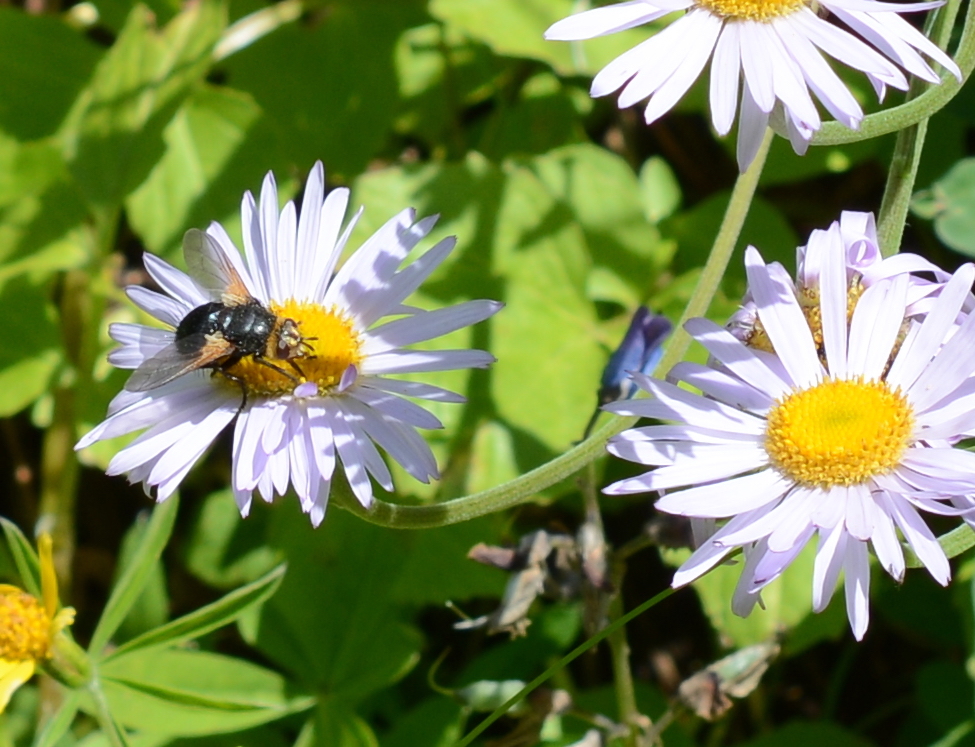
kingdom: Animalia
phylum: Arthropoda
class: Insecta
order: Diptera
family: Tachinidae
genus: Tachina
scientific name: Tachina latianulum
